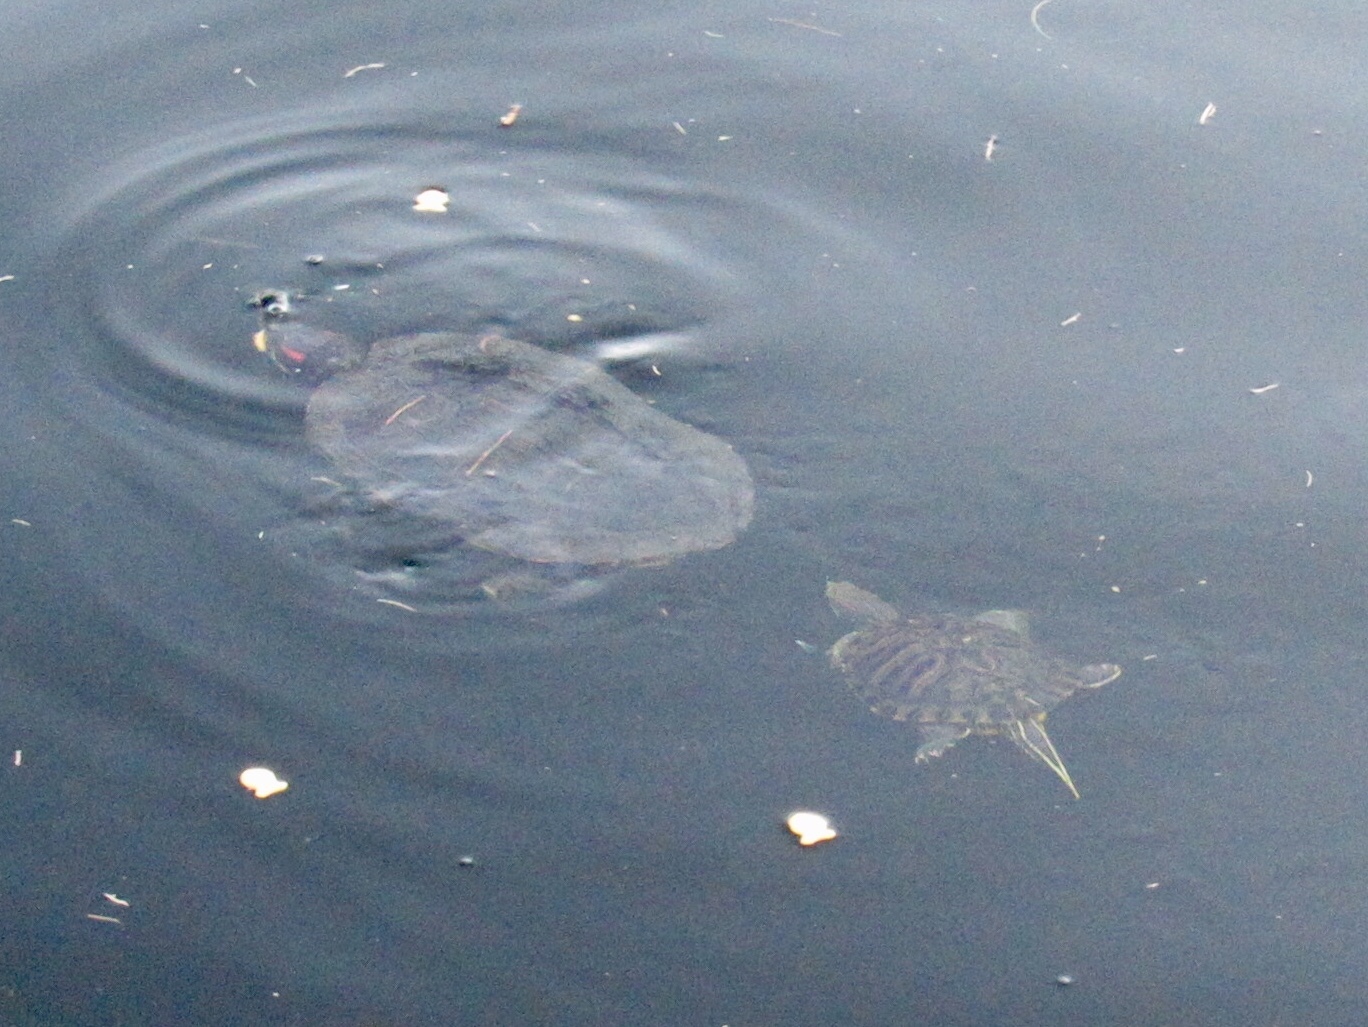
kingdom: Animalia
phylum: Chordata
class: Testudines
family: Emydidae
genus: Trachemys
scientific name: Trachemys scripta
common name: Slider
